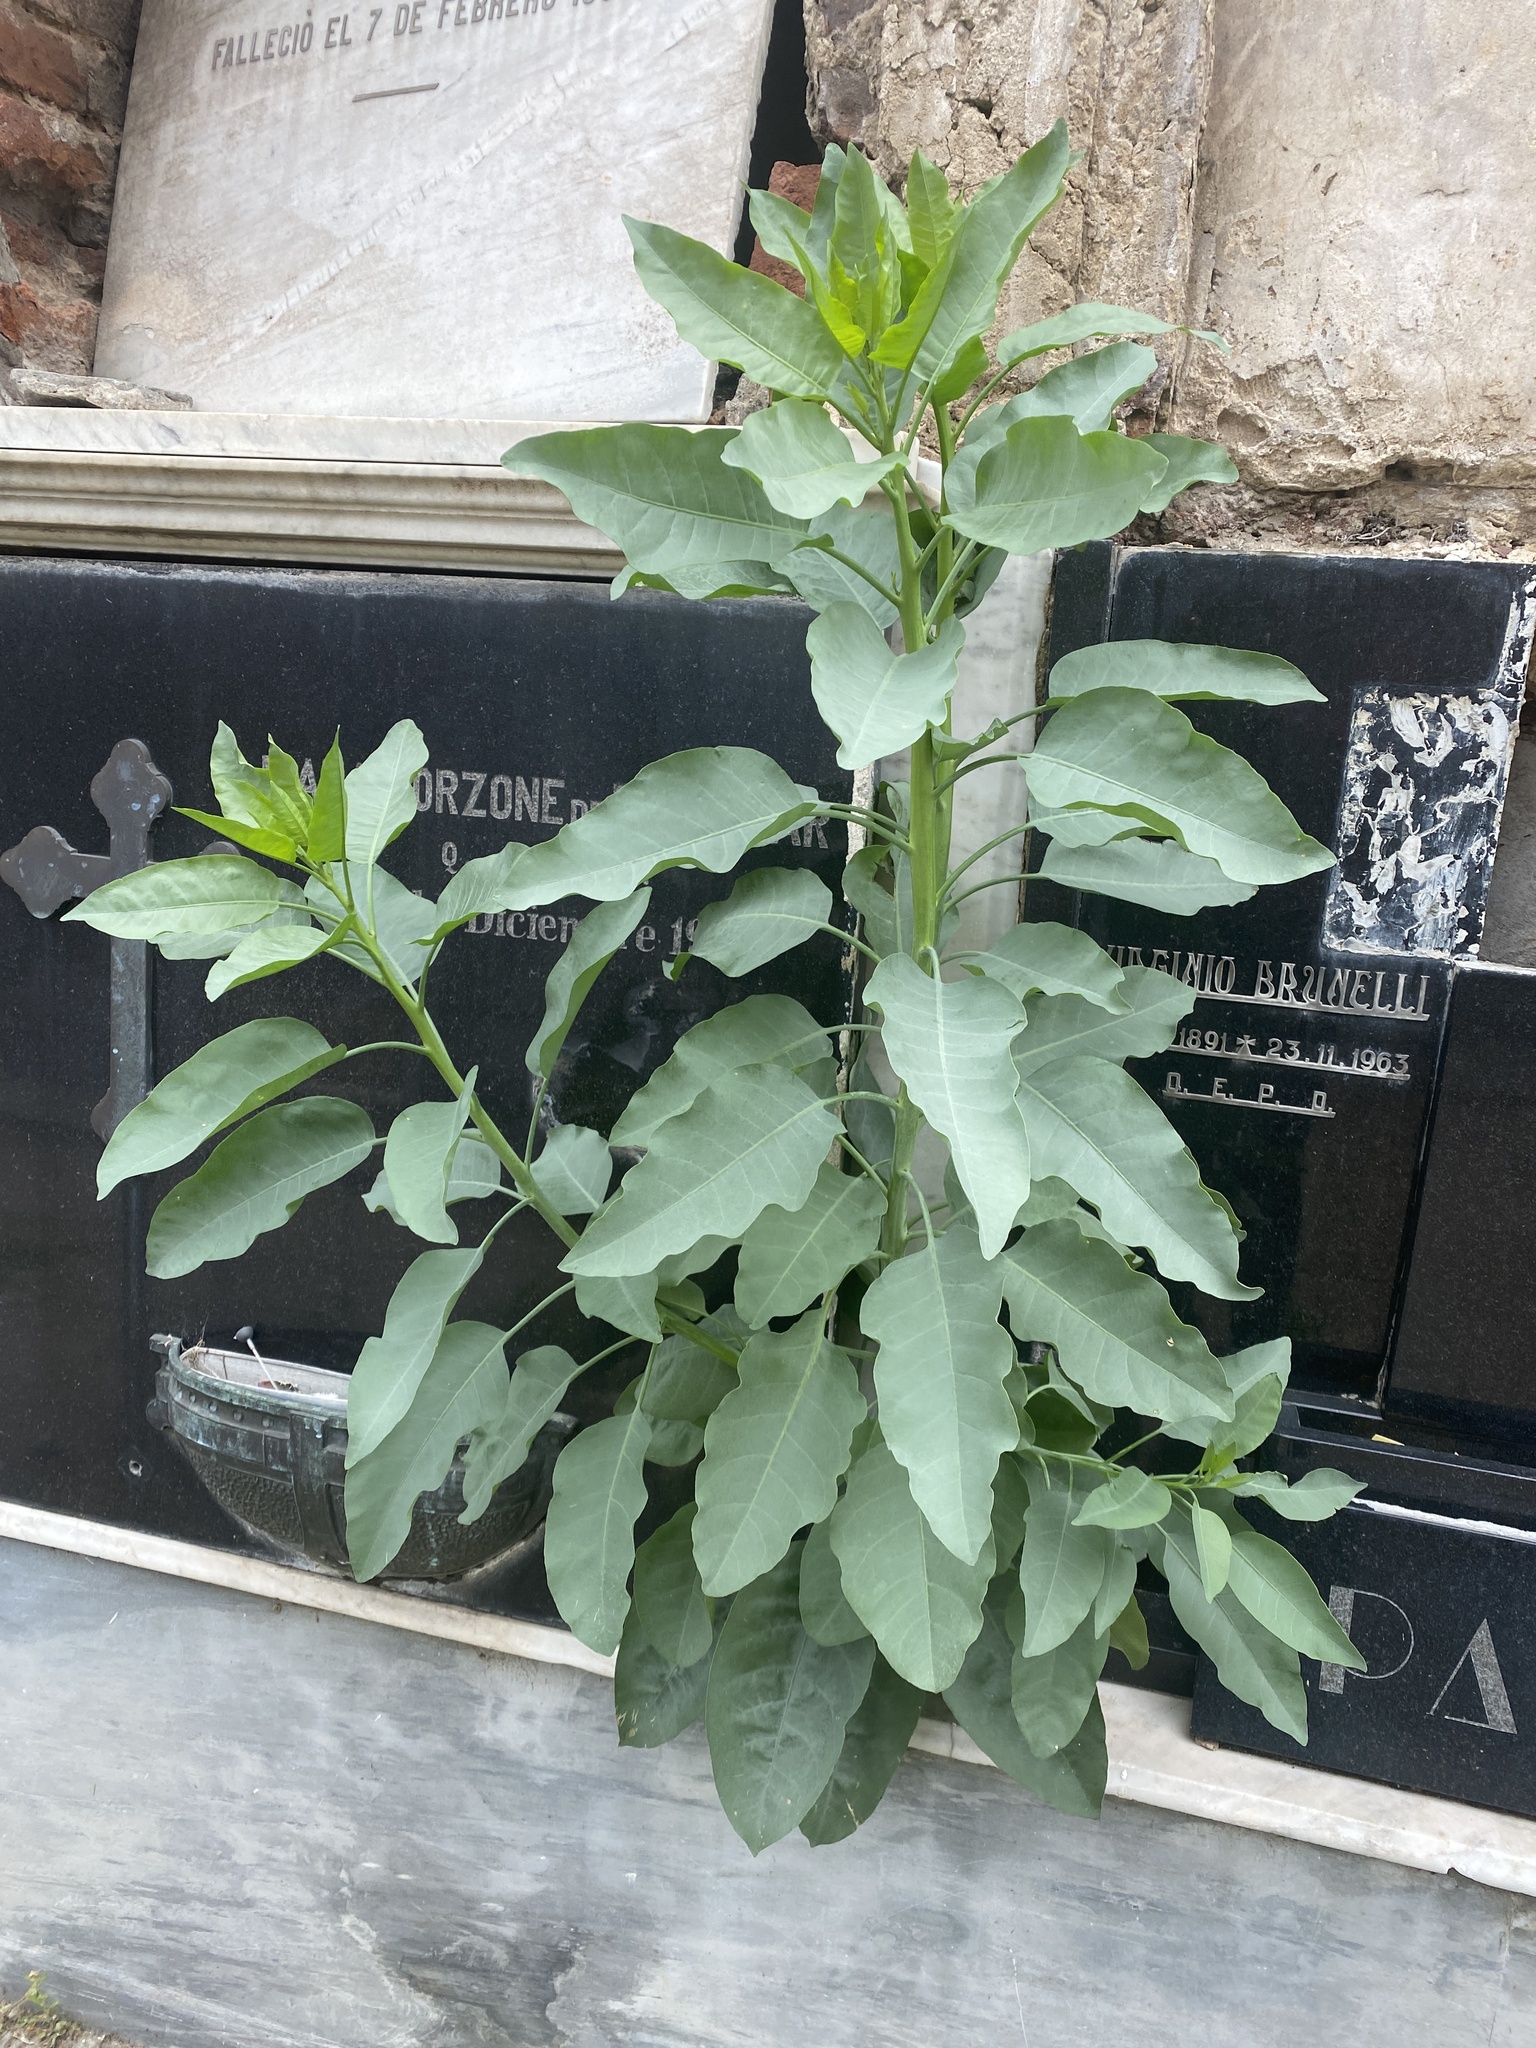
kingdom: Plantae
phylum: Tracheophyta
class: Magnoliopsida
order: Solanales
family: Solanaceae
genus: Nicotiana
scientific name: Nicotiana glauca
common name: Tree tobacco
